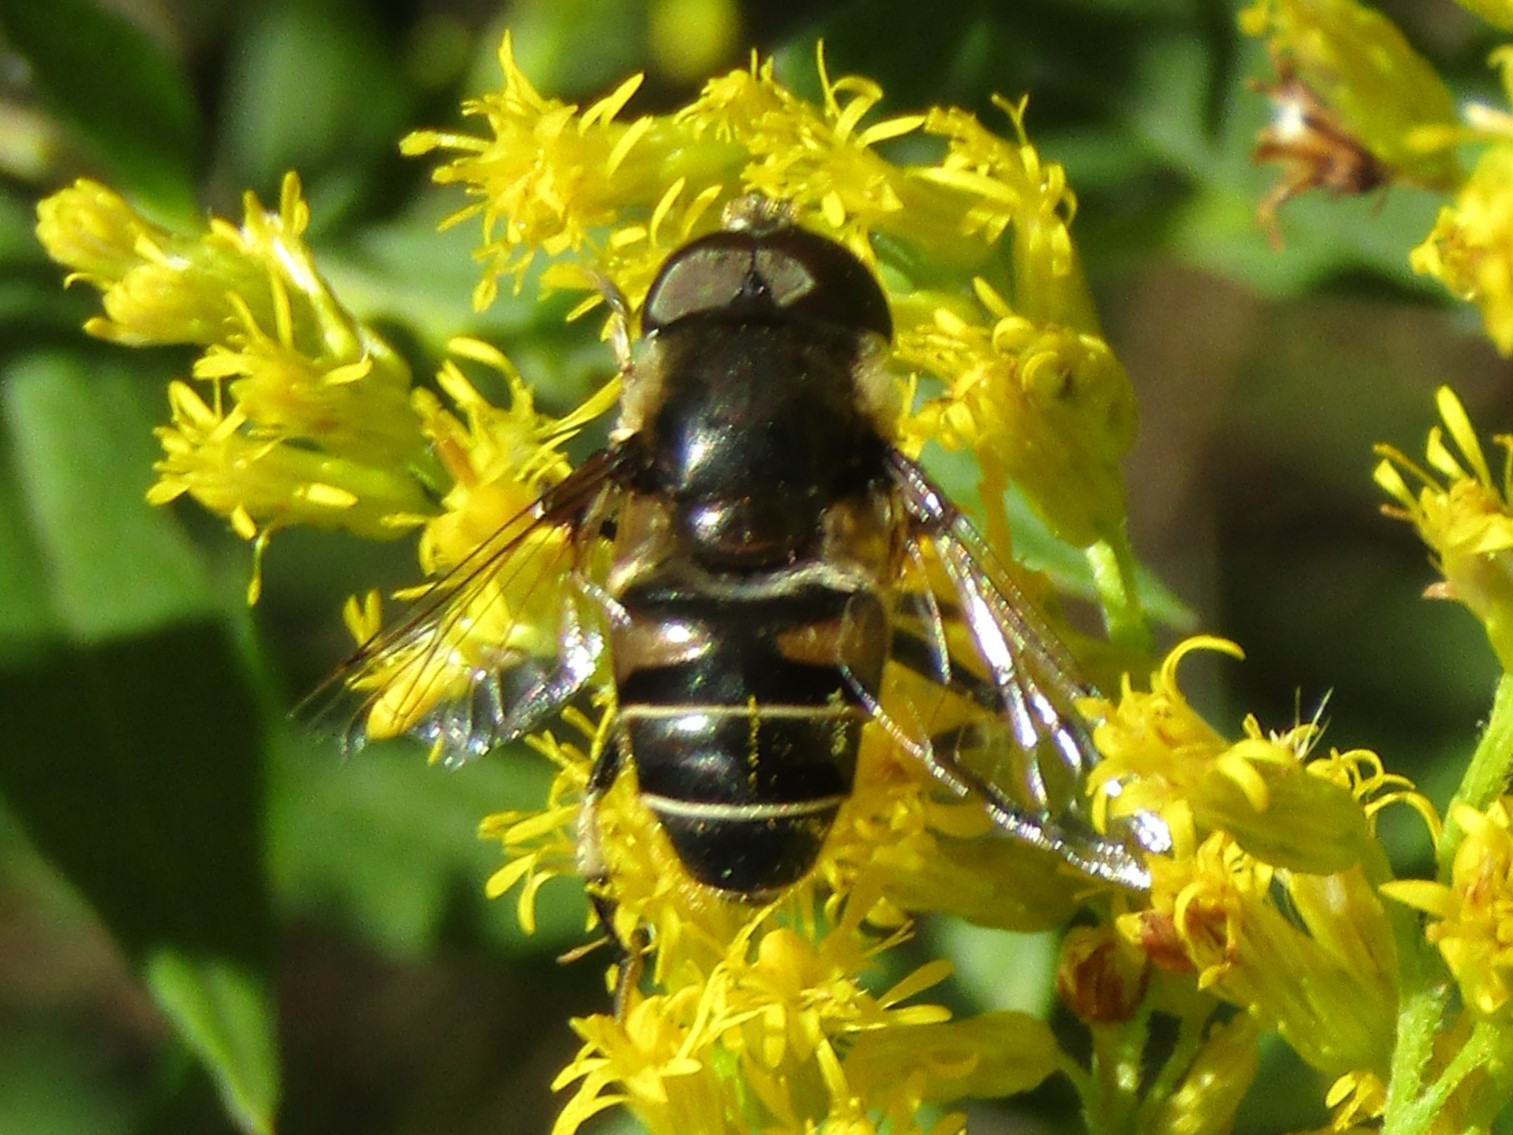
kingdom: Animalia
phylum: Arthropoda
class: Insecta
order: Diptera
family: Syrphidae
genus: Eristalis
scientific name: Eristalis dimidiata
